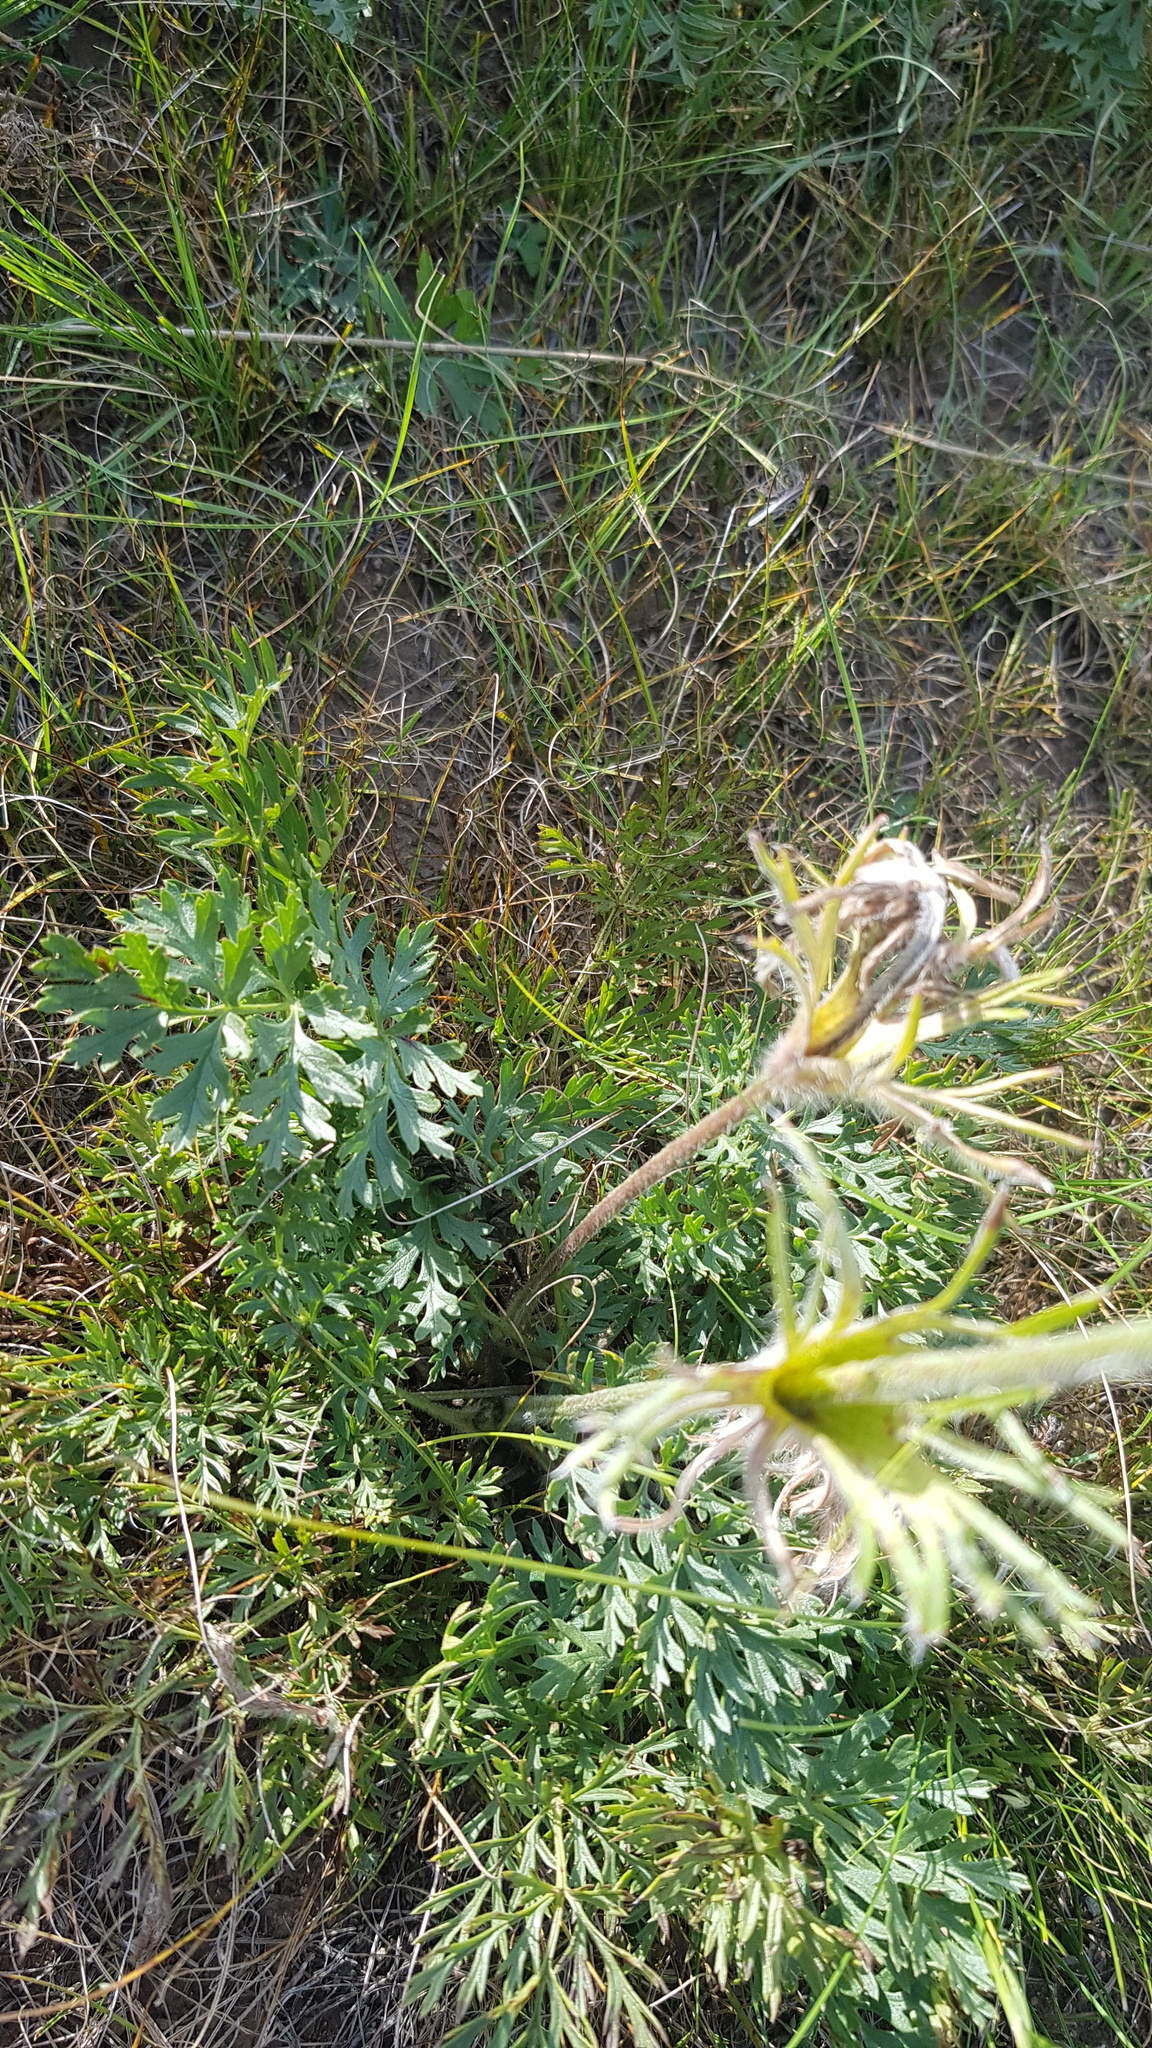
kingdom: Plantae
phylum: Tracheophyta
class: Magnoliopsida
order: Ranunculales
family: Ranunculaceae
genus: Pulsatilla
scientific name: Pulsatilla turczaninovii
